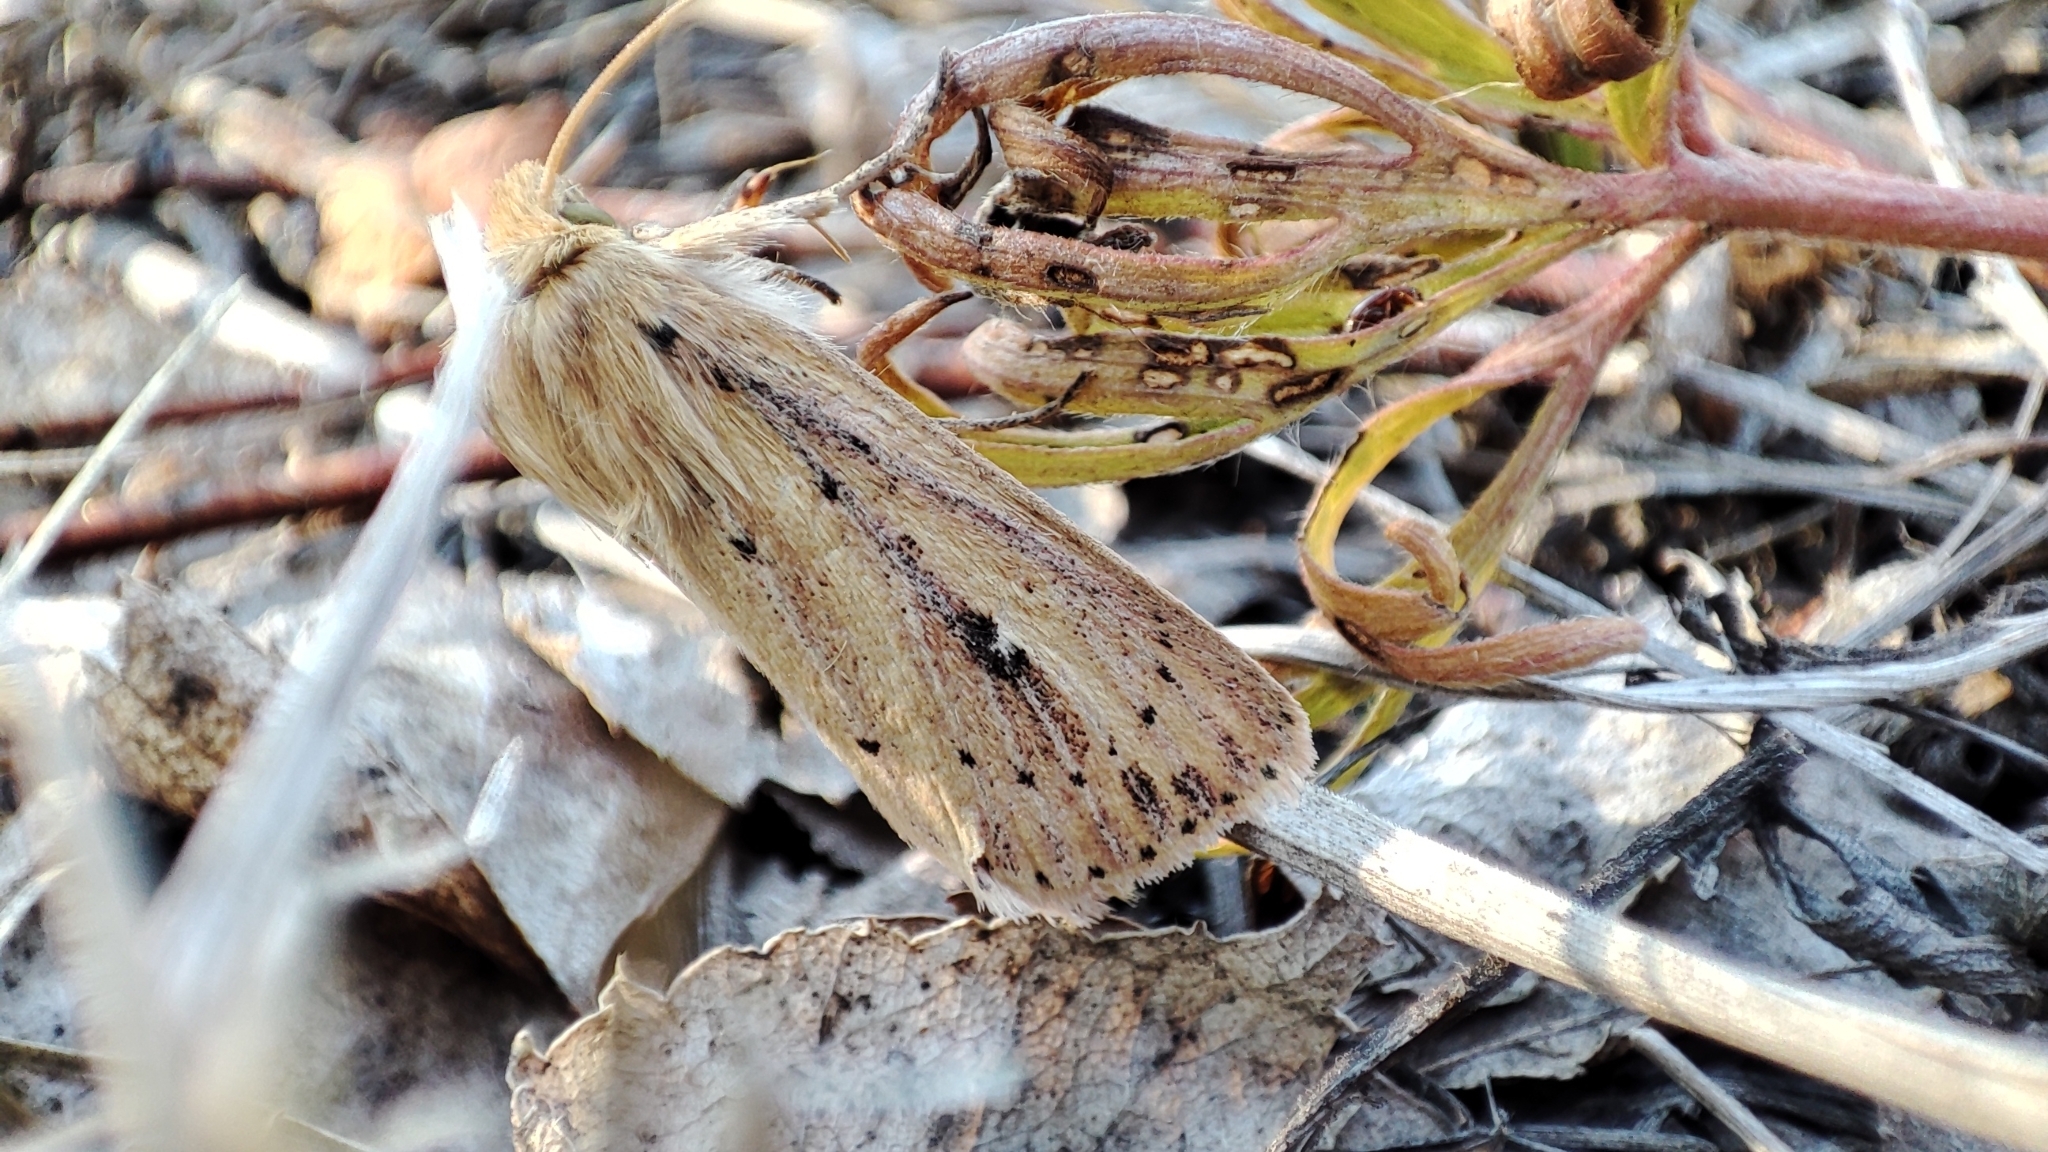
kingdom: Animalia
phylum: Arthropoda
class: Insecta
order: Lepidoptera
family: Noctuidae
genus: Globia
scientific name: Globia sparganii
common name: Webb's wainscot
